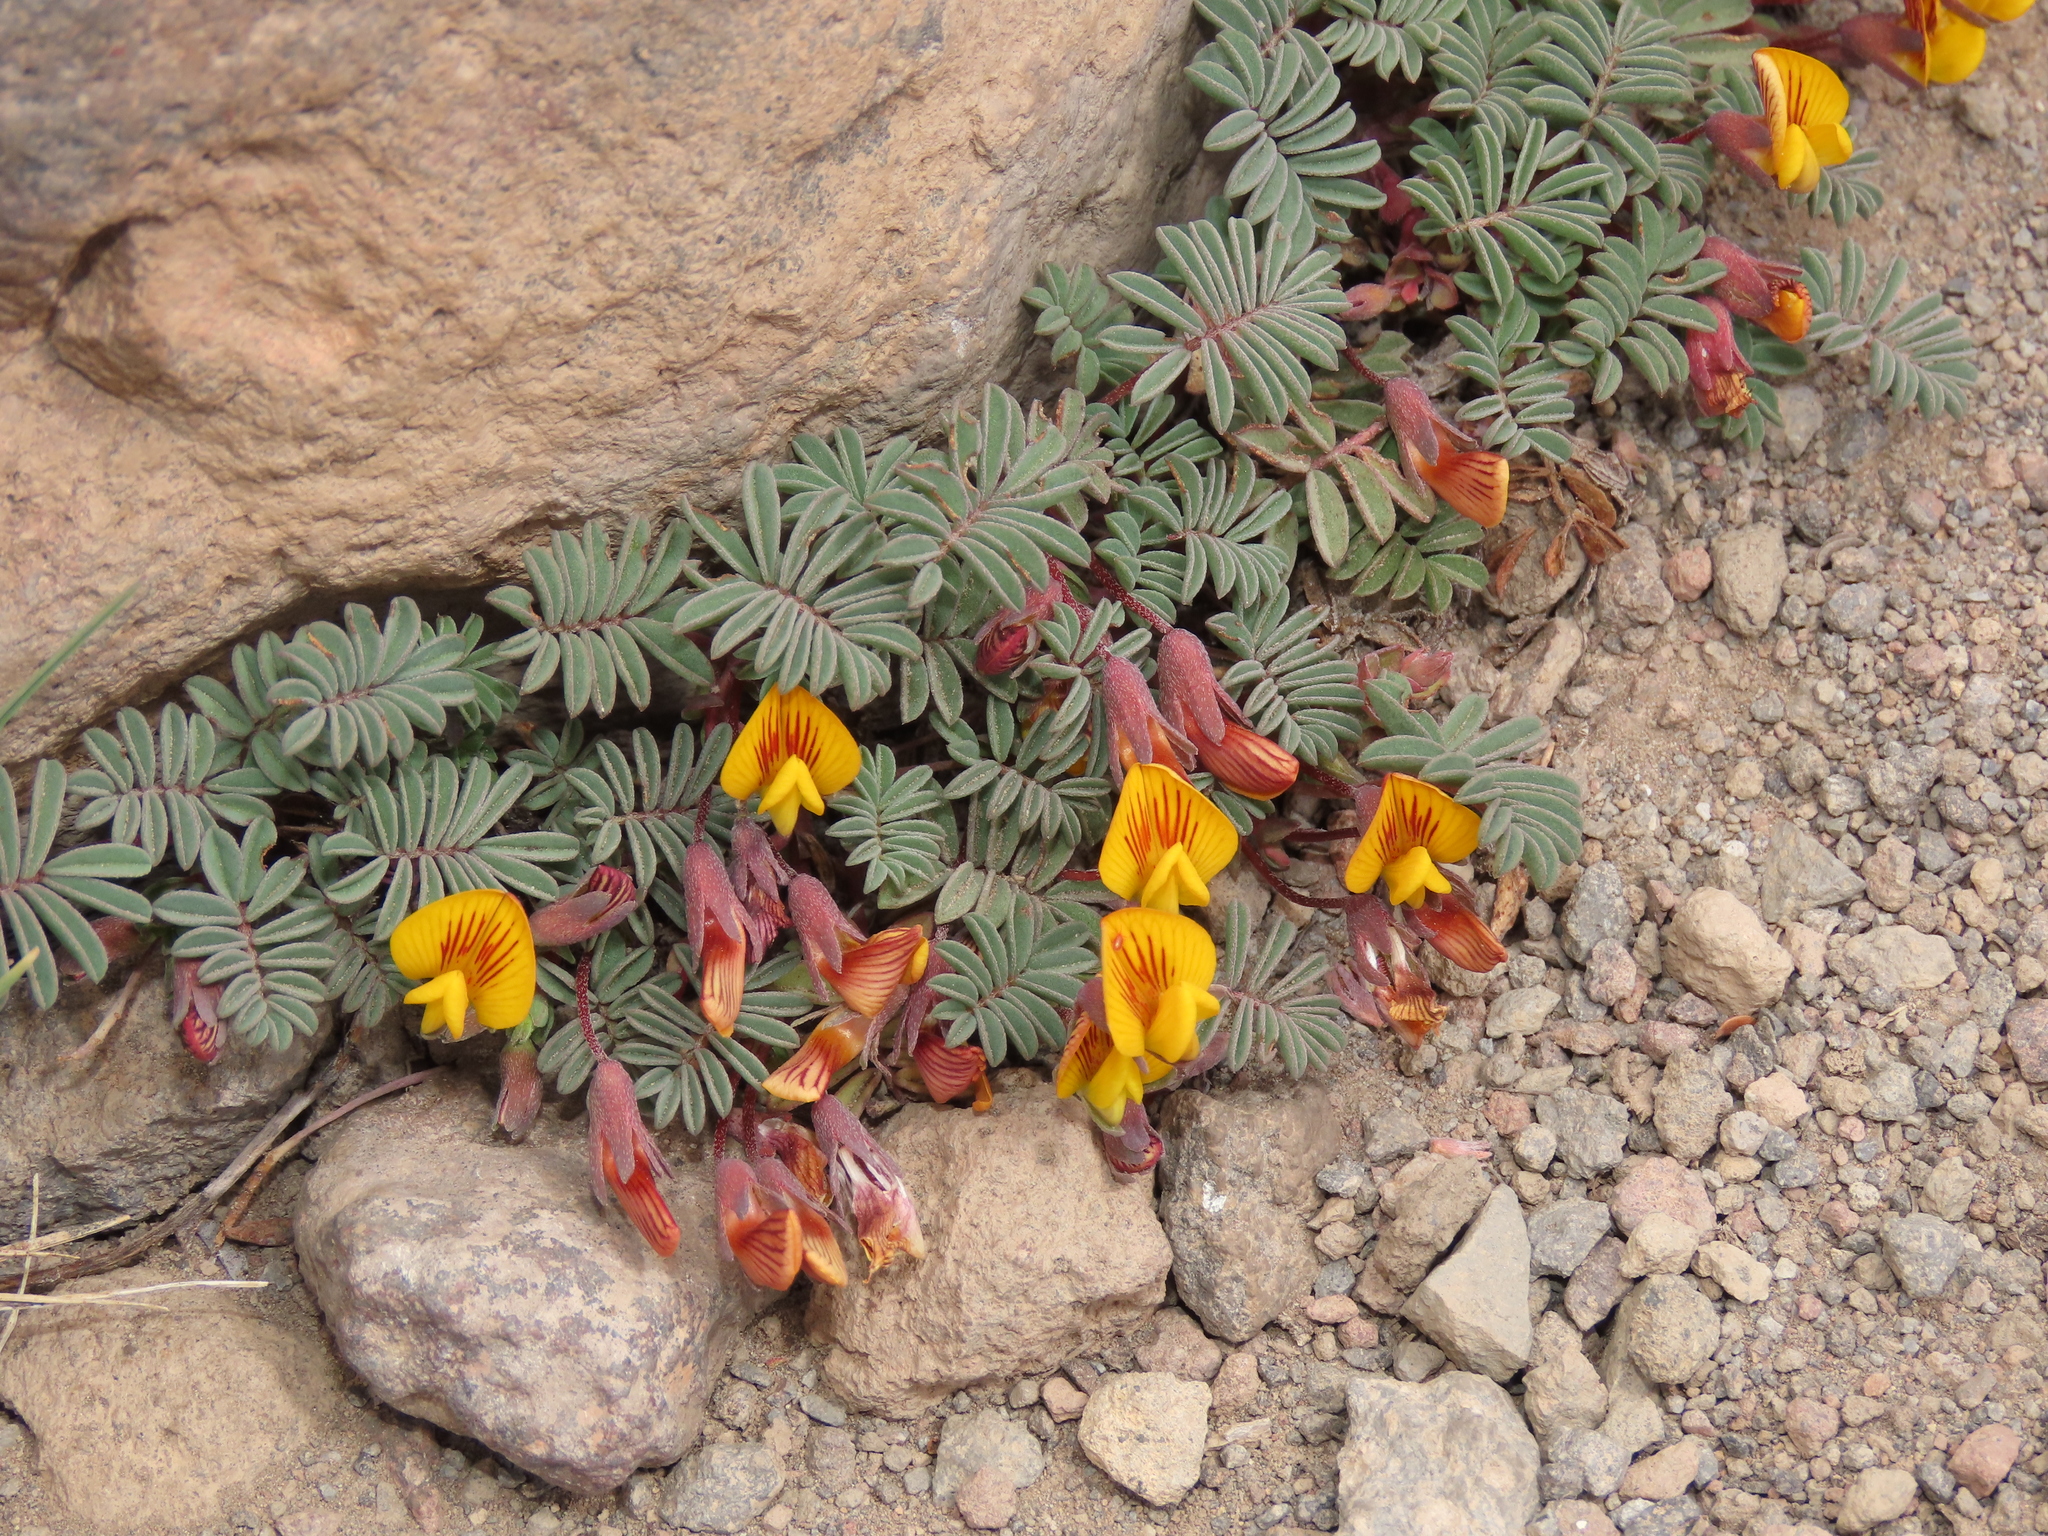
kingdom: Plantae
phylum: Tracheophyta
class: Magnoliopsida
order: Fabales
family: Fabaceae
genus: Adesmia
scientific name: Adesmia longipes
